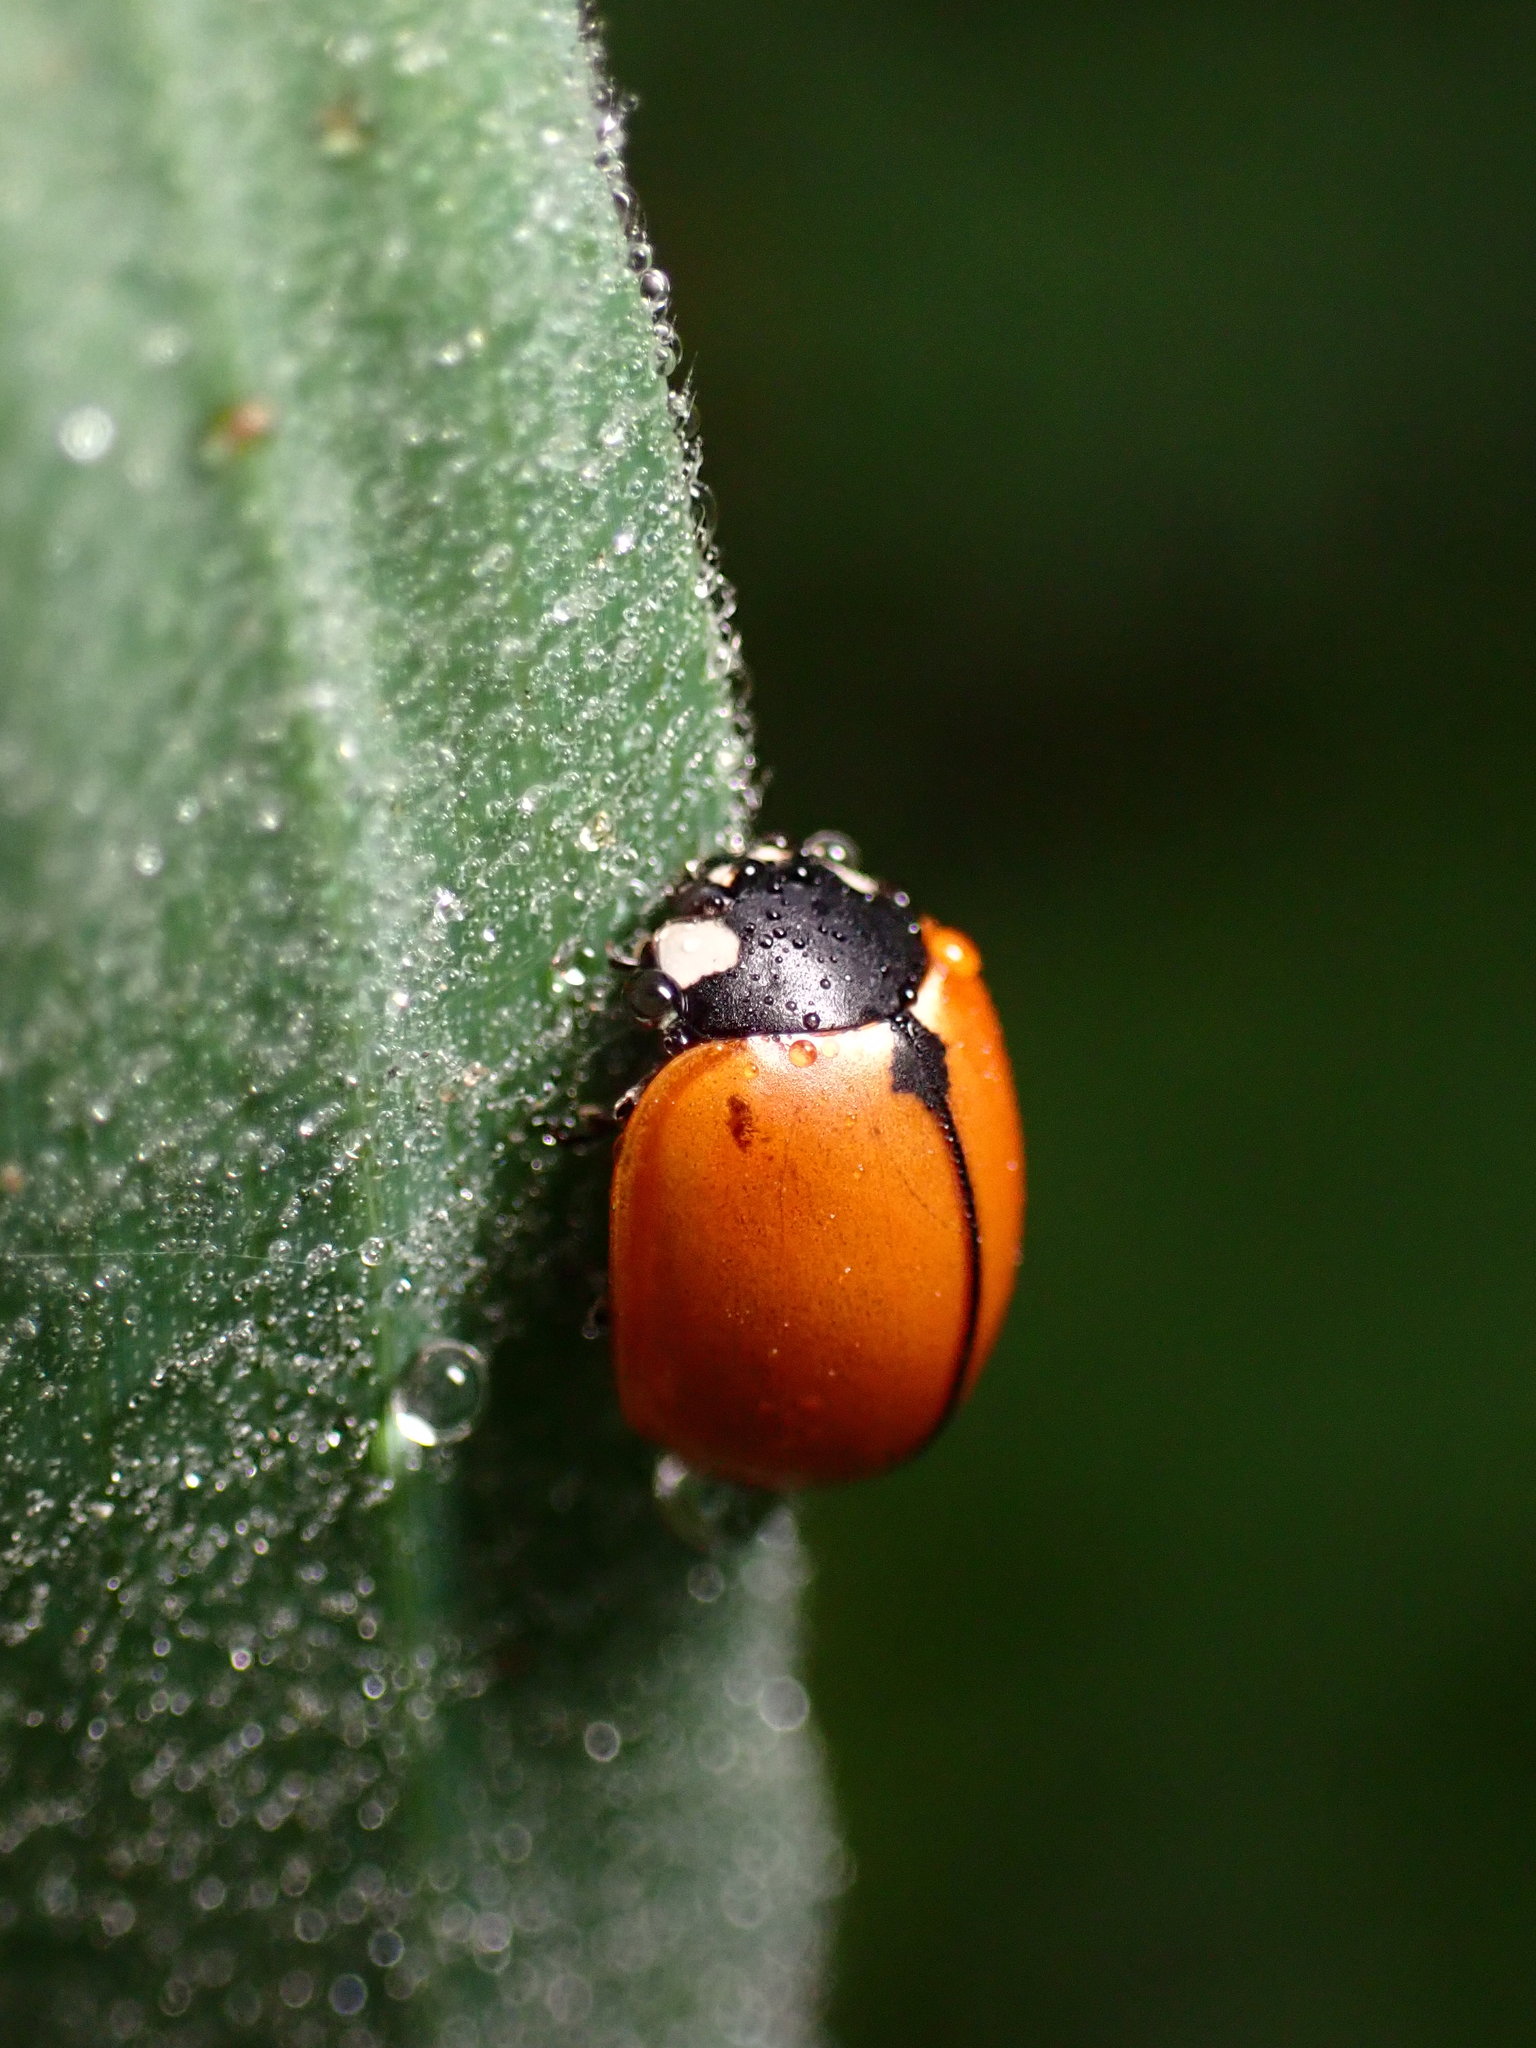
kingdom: Animalia
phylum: Arthropoda
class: Insecta
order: Coleoptera
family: Coccinellidae
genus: Coccinella
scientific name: Coccinella californica
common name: Lady beetle
